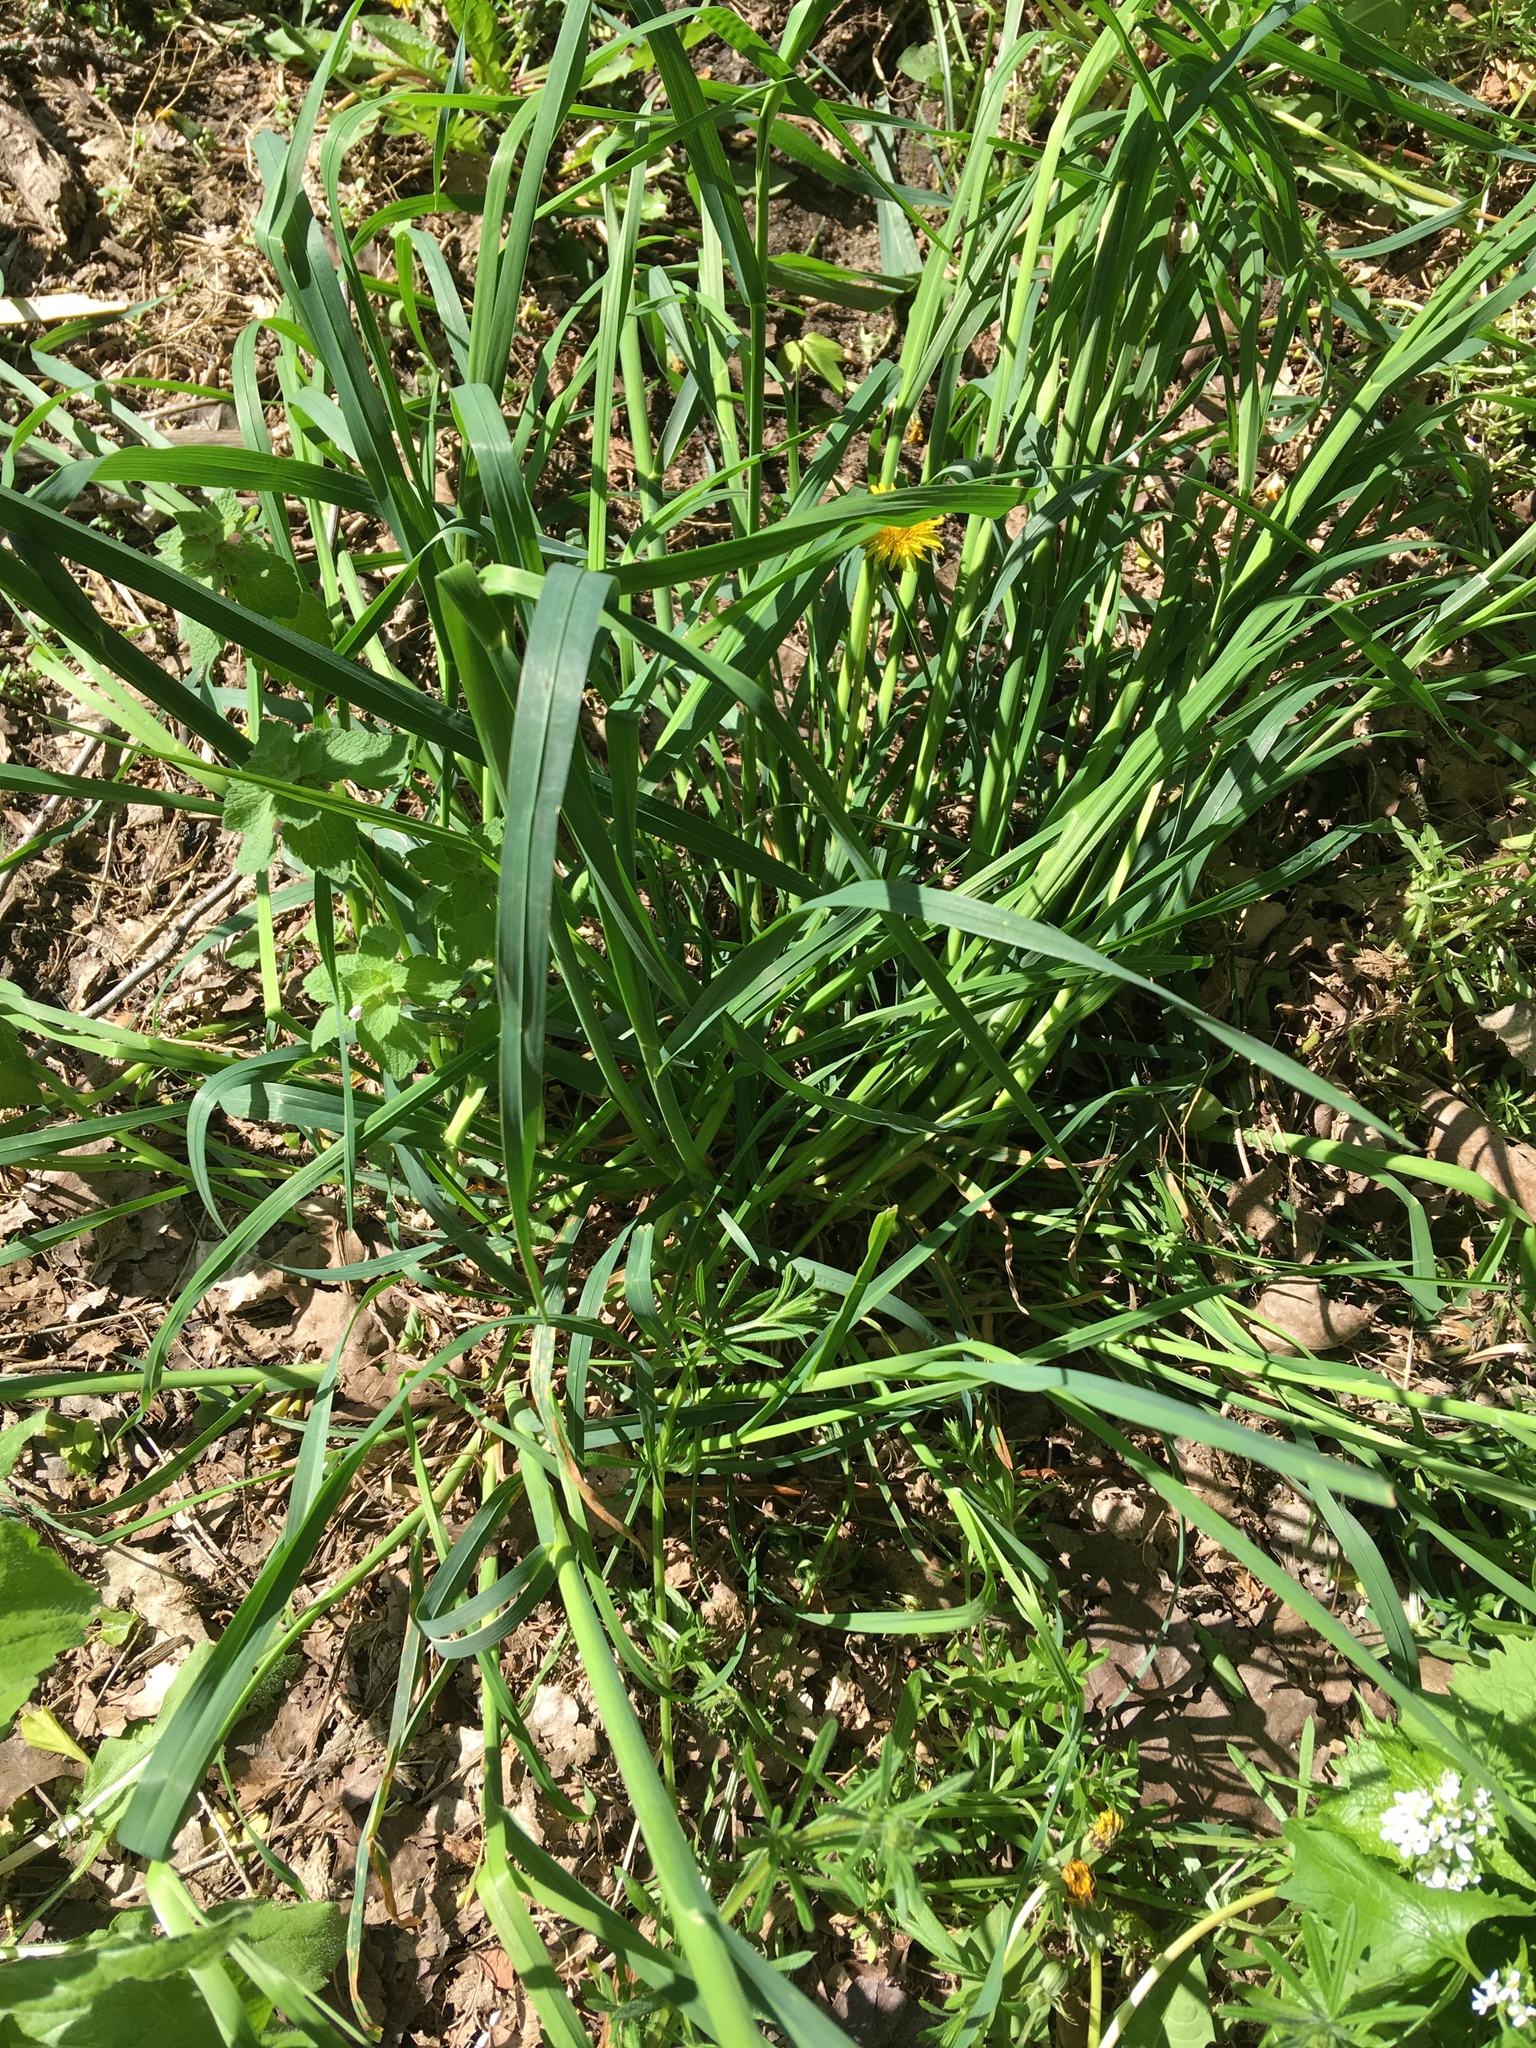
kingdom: Plantae
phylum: Tracheophyta
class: Liliopsida
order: Poales
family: Poaceae
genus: Dactylis
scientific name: Dactylis glomerata
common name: Orchardgrass
